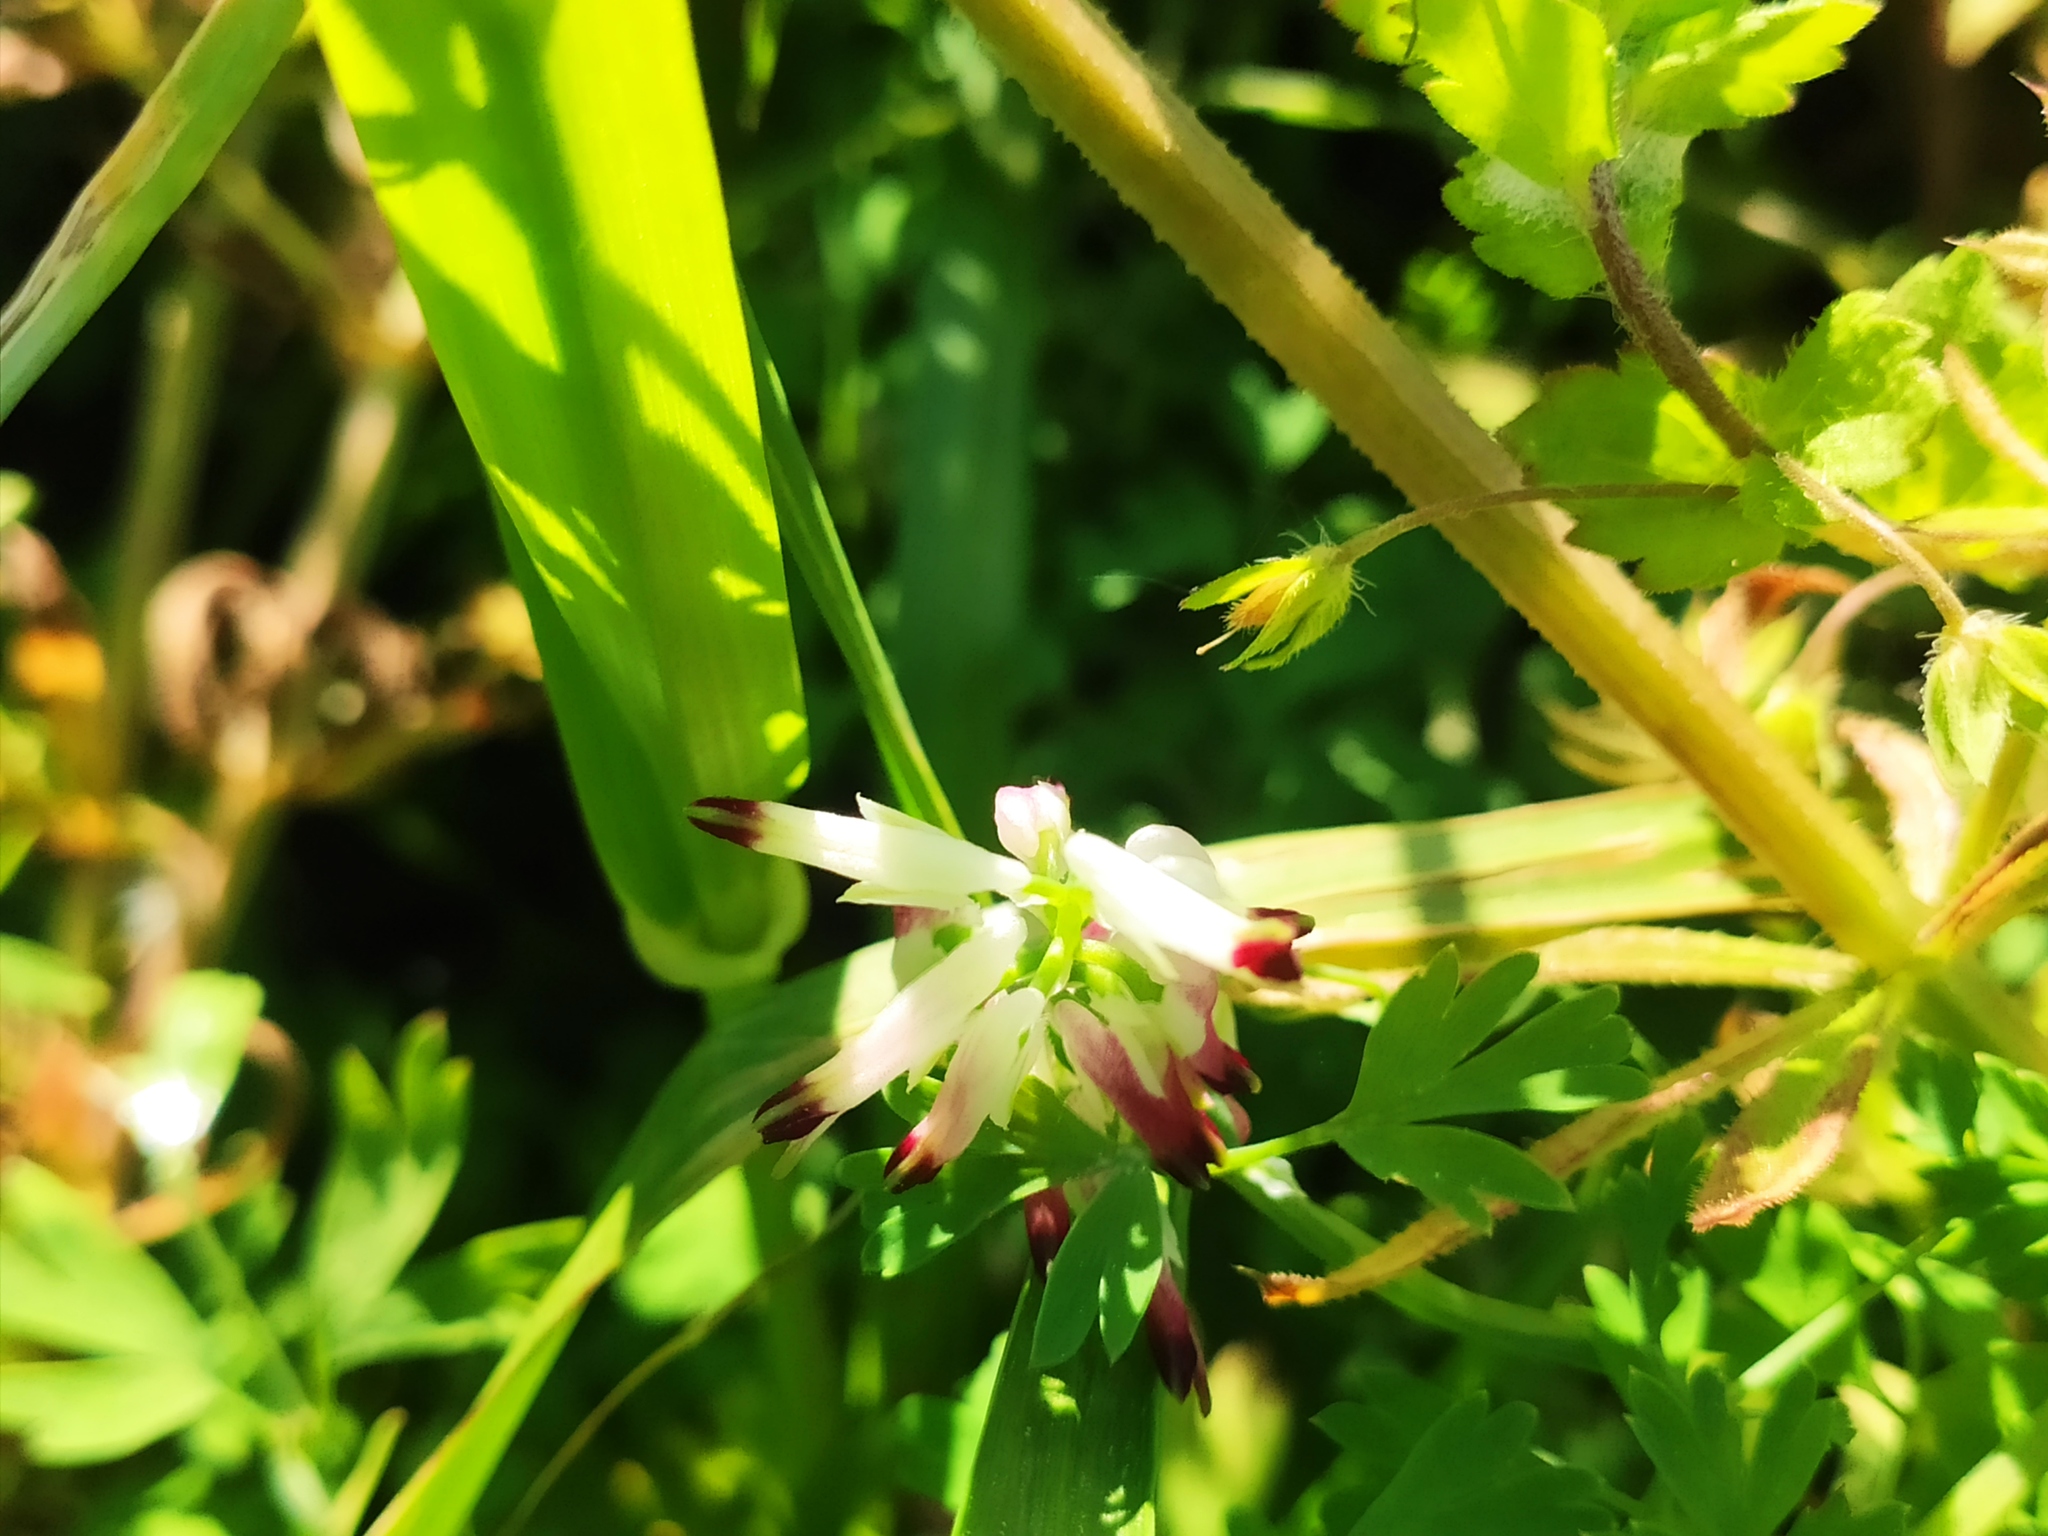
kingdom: Plantae
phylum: Tracheophyta
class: Magnoliopsida
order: Ranunculales
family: Papaveraceae
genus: Fumaria
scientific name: Fumaria capreolata
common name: White ramping-fumitory
